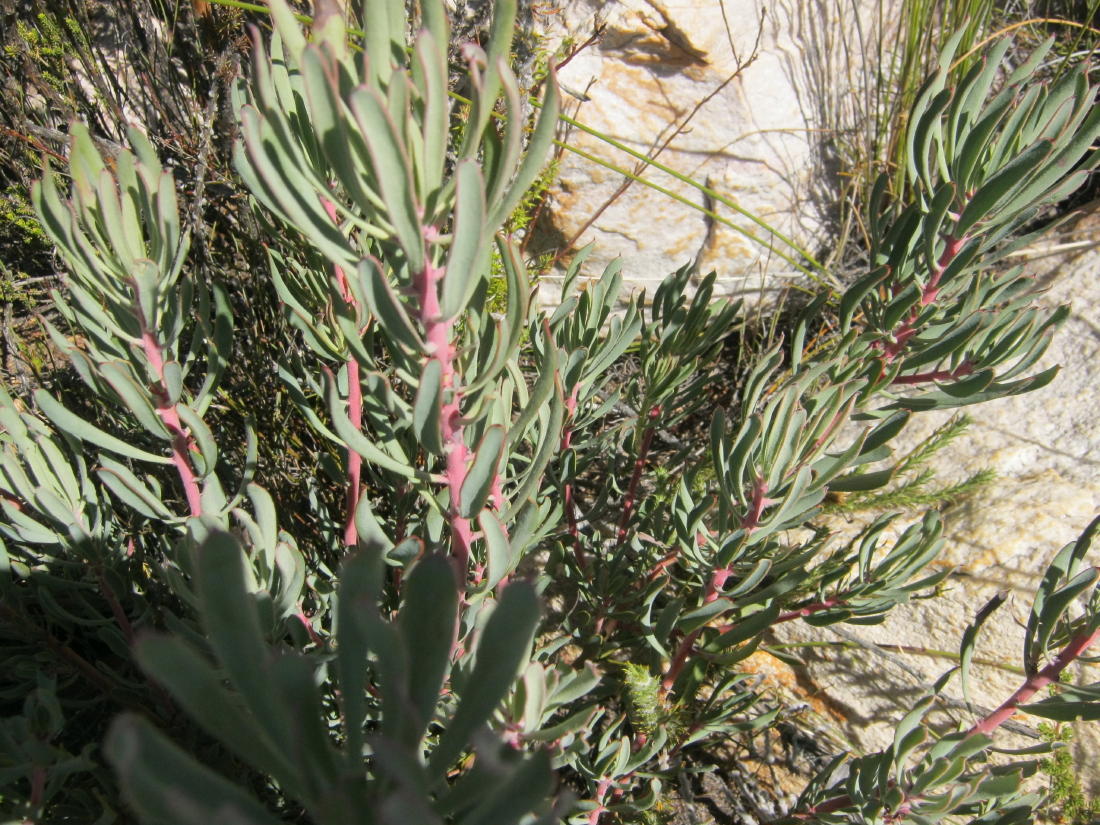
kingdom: Plantae
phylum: Tracheophyta
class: Magnoliopsida
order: Proteales
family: Proteaceae
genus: Protea
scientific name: Protea canaliculata
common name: Groove-leaf sugarbush
